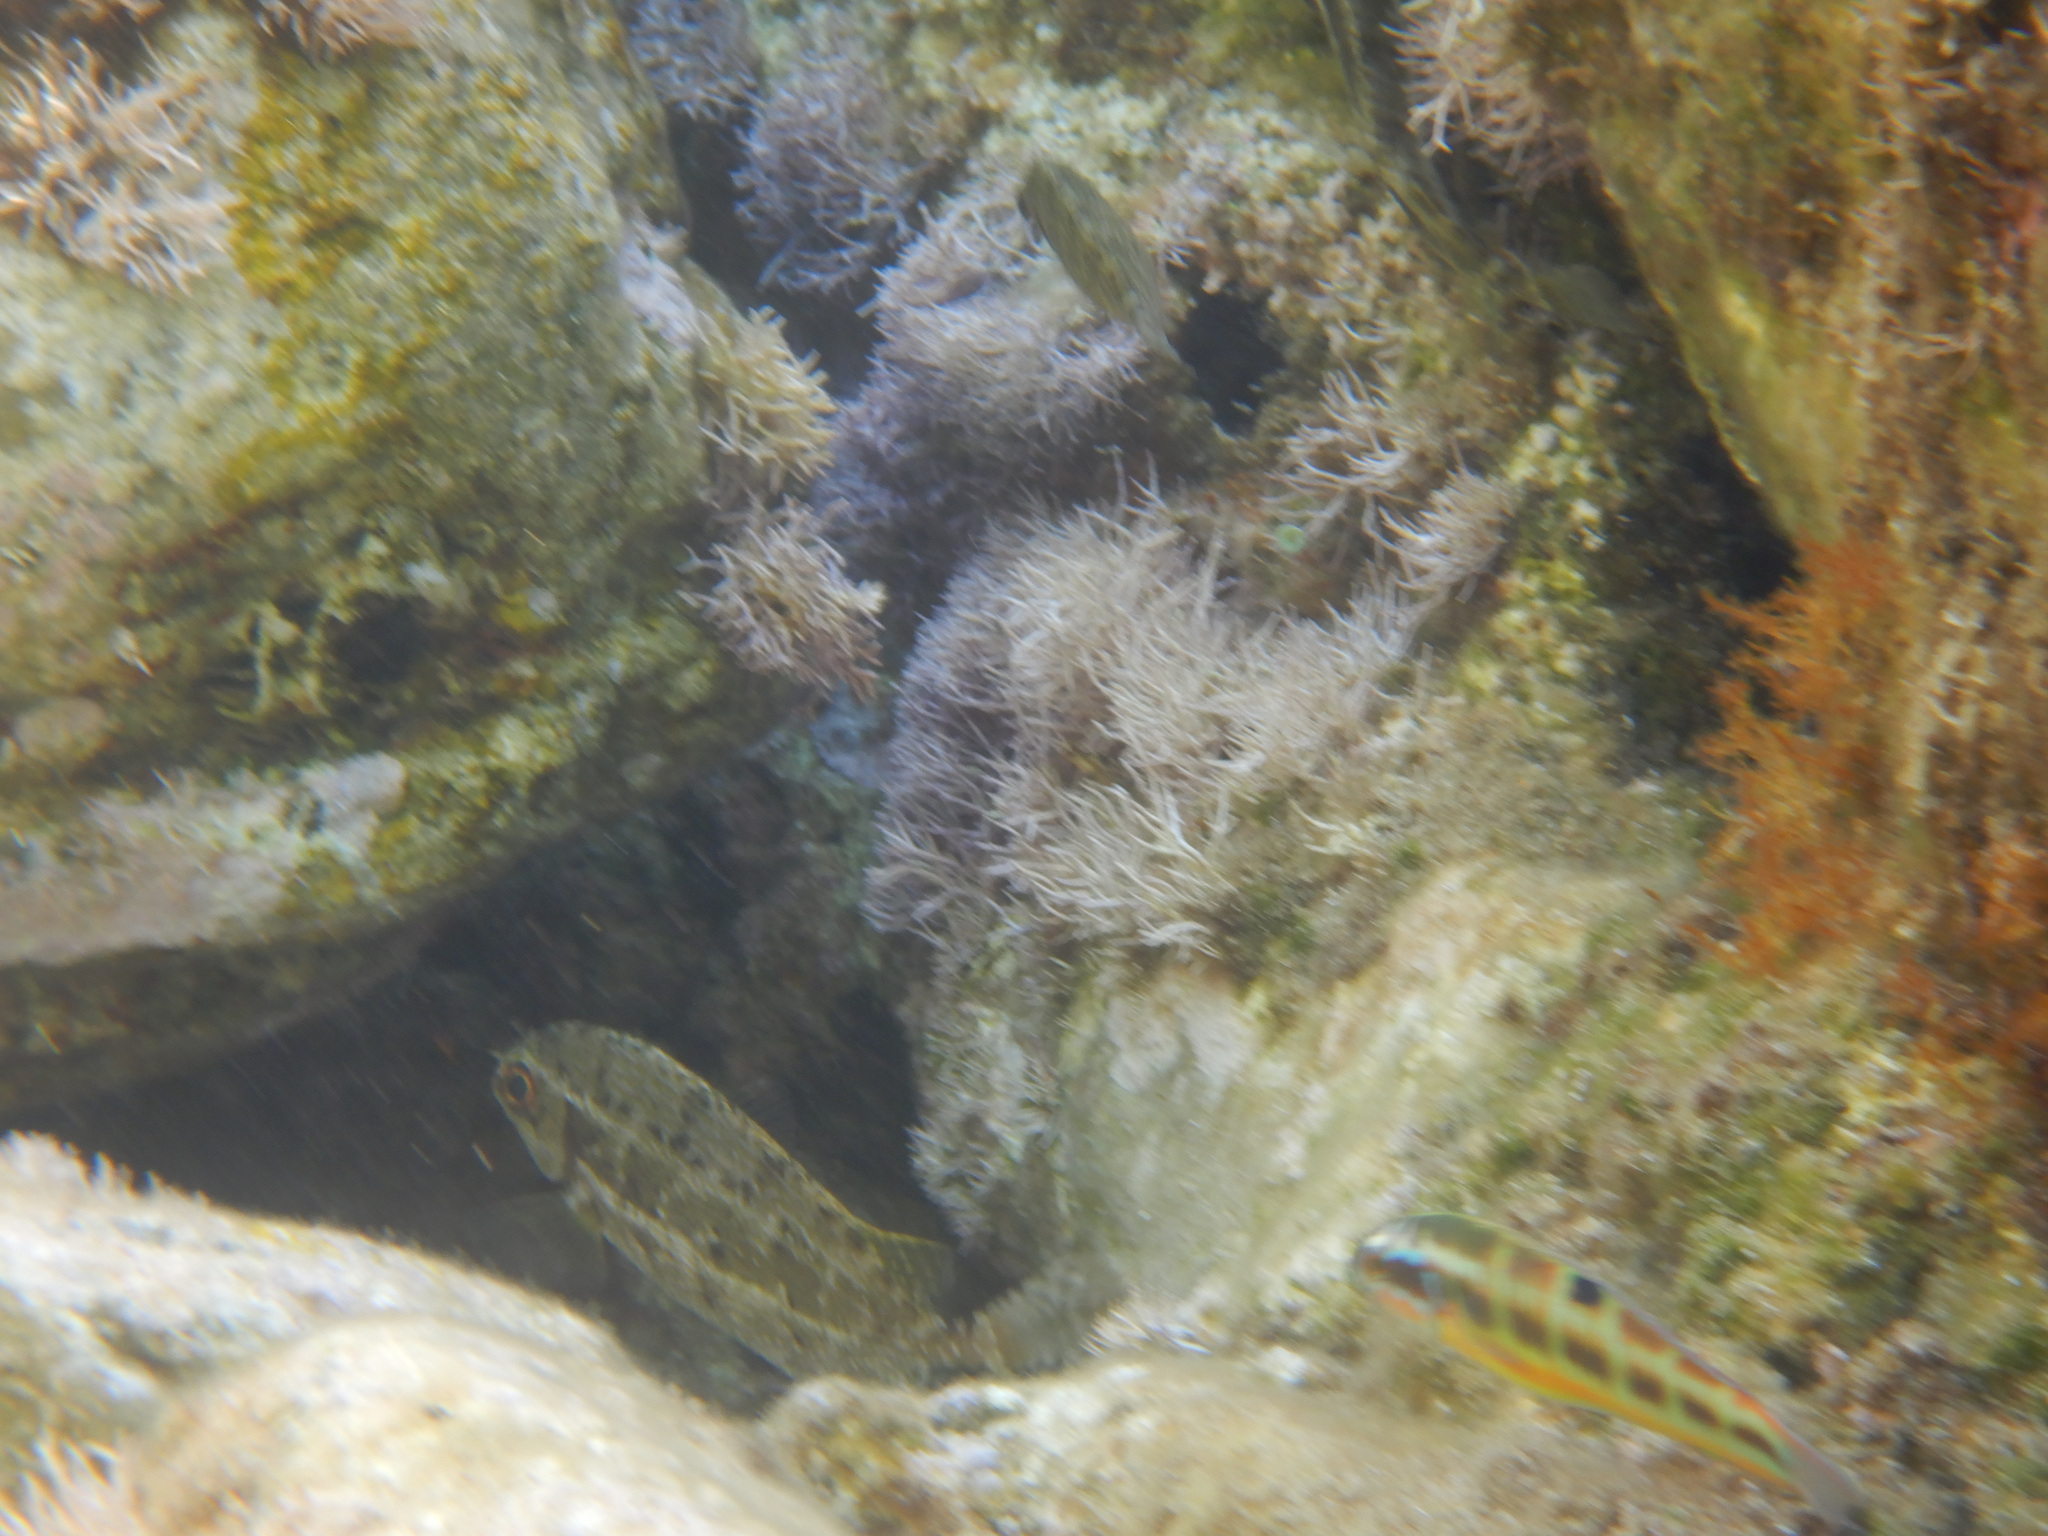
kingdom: Animalia
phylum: Chordata
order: Perciformes
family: Siganidae
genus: Siganus
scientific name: Siganus luridus
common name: Dusky spinefoot
